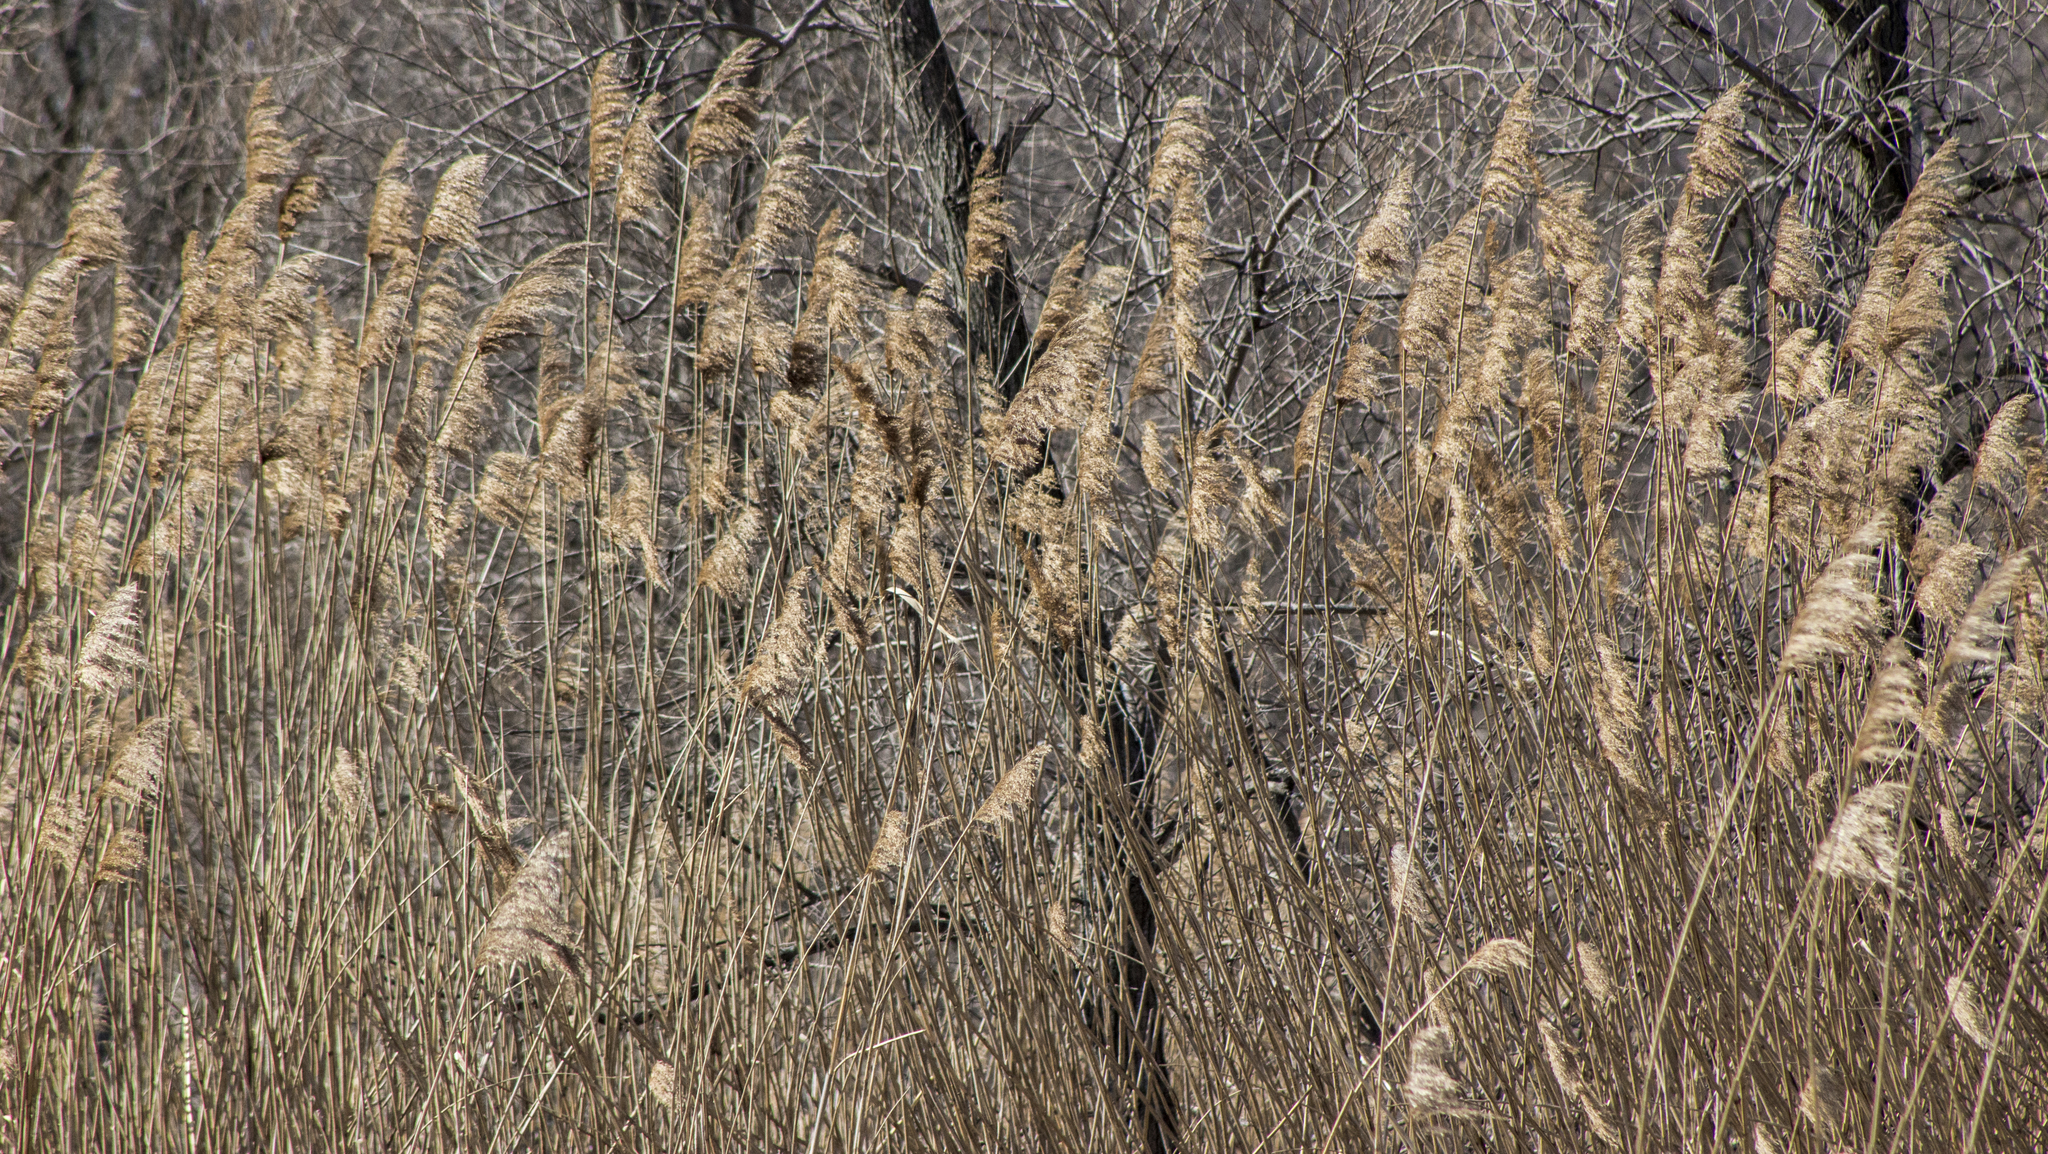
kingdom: Plantae
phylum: Tracheophyta
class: Liliopsida
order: Poales
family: Poaceae
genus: Phragmites
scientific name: Phragmites australis
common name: Common reed
